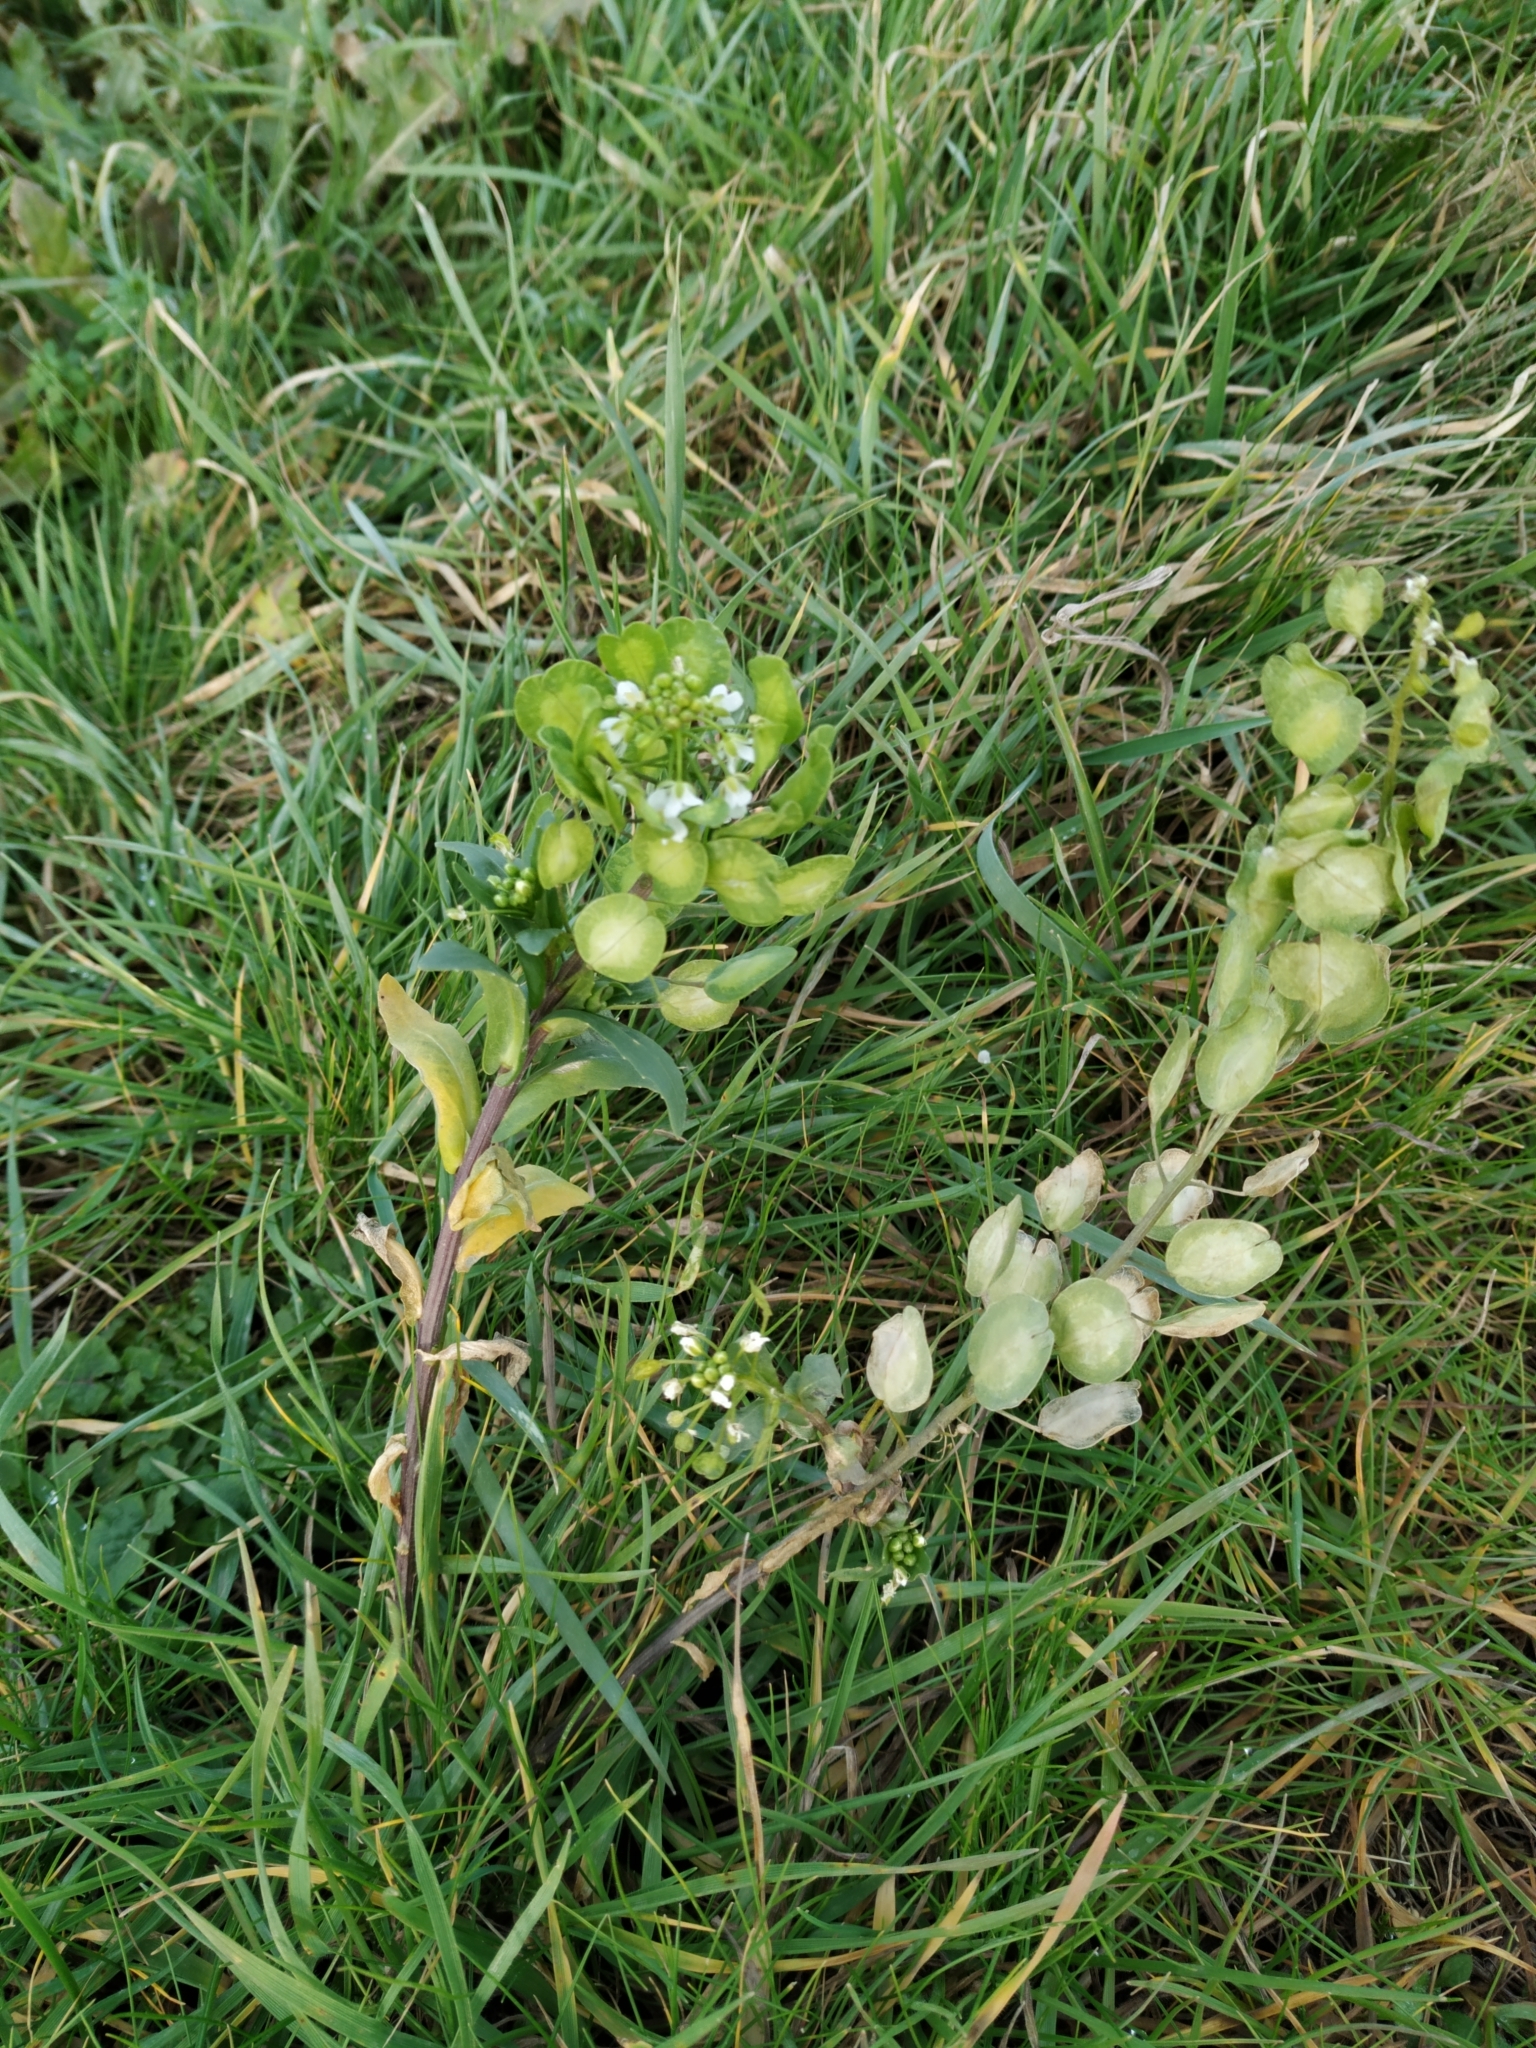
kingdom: Plantae
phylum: Tracheophyta
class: Magnoliopsida
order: Brassicales
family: Brassicaceae
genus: Thlaspi
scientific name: Thlaspi arvense
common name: Field pennycress
